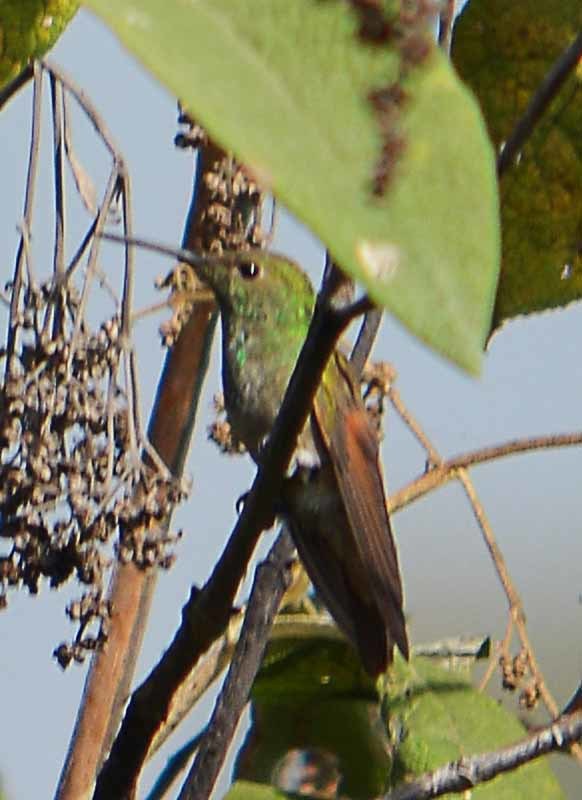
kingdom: Animalia
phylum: Chordata
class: Aves
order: Apodiformes
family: Trochilidae
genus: Saucerottia
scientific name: Saucerottia beryllina
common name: Berylline hummingbird
